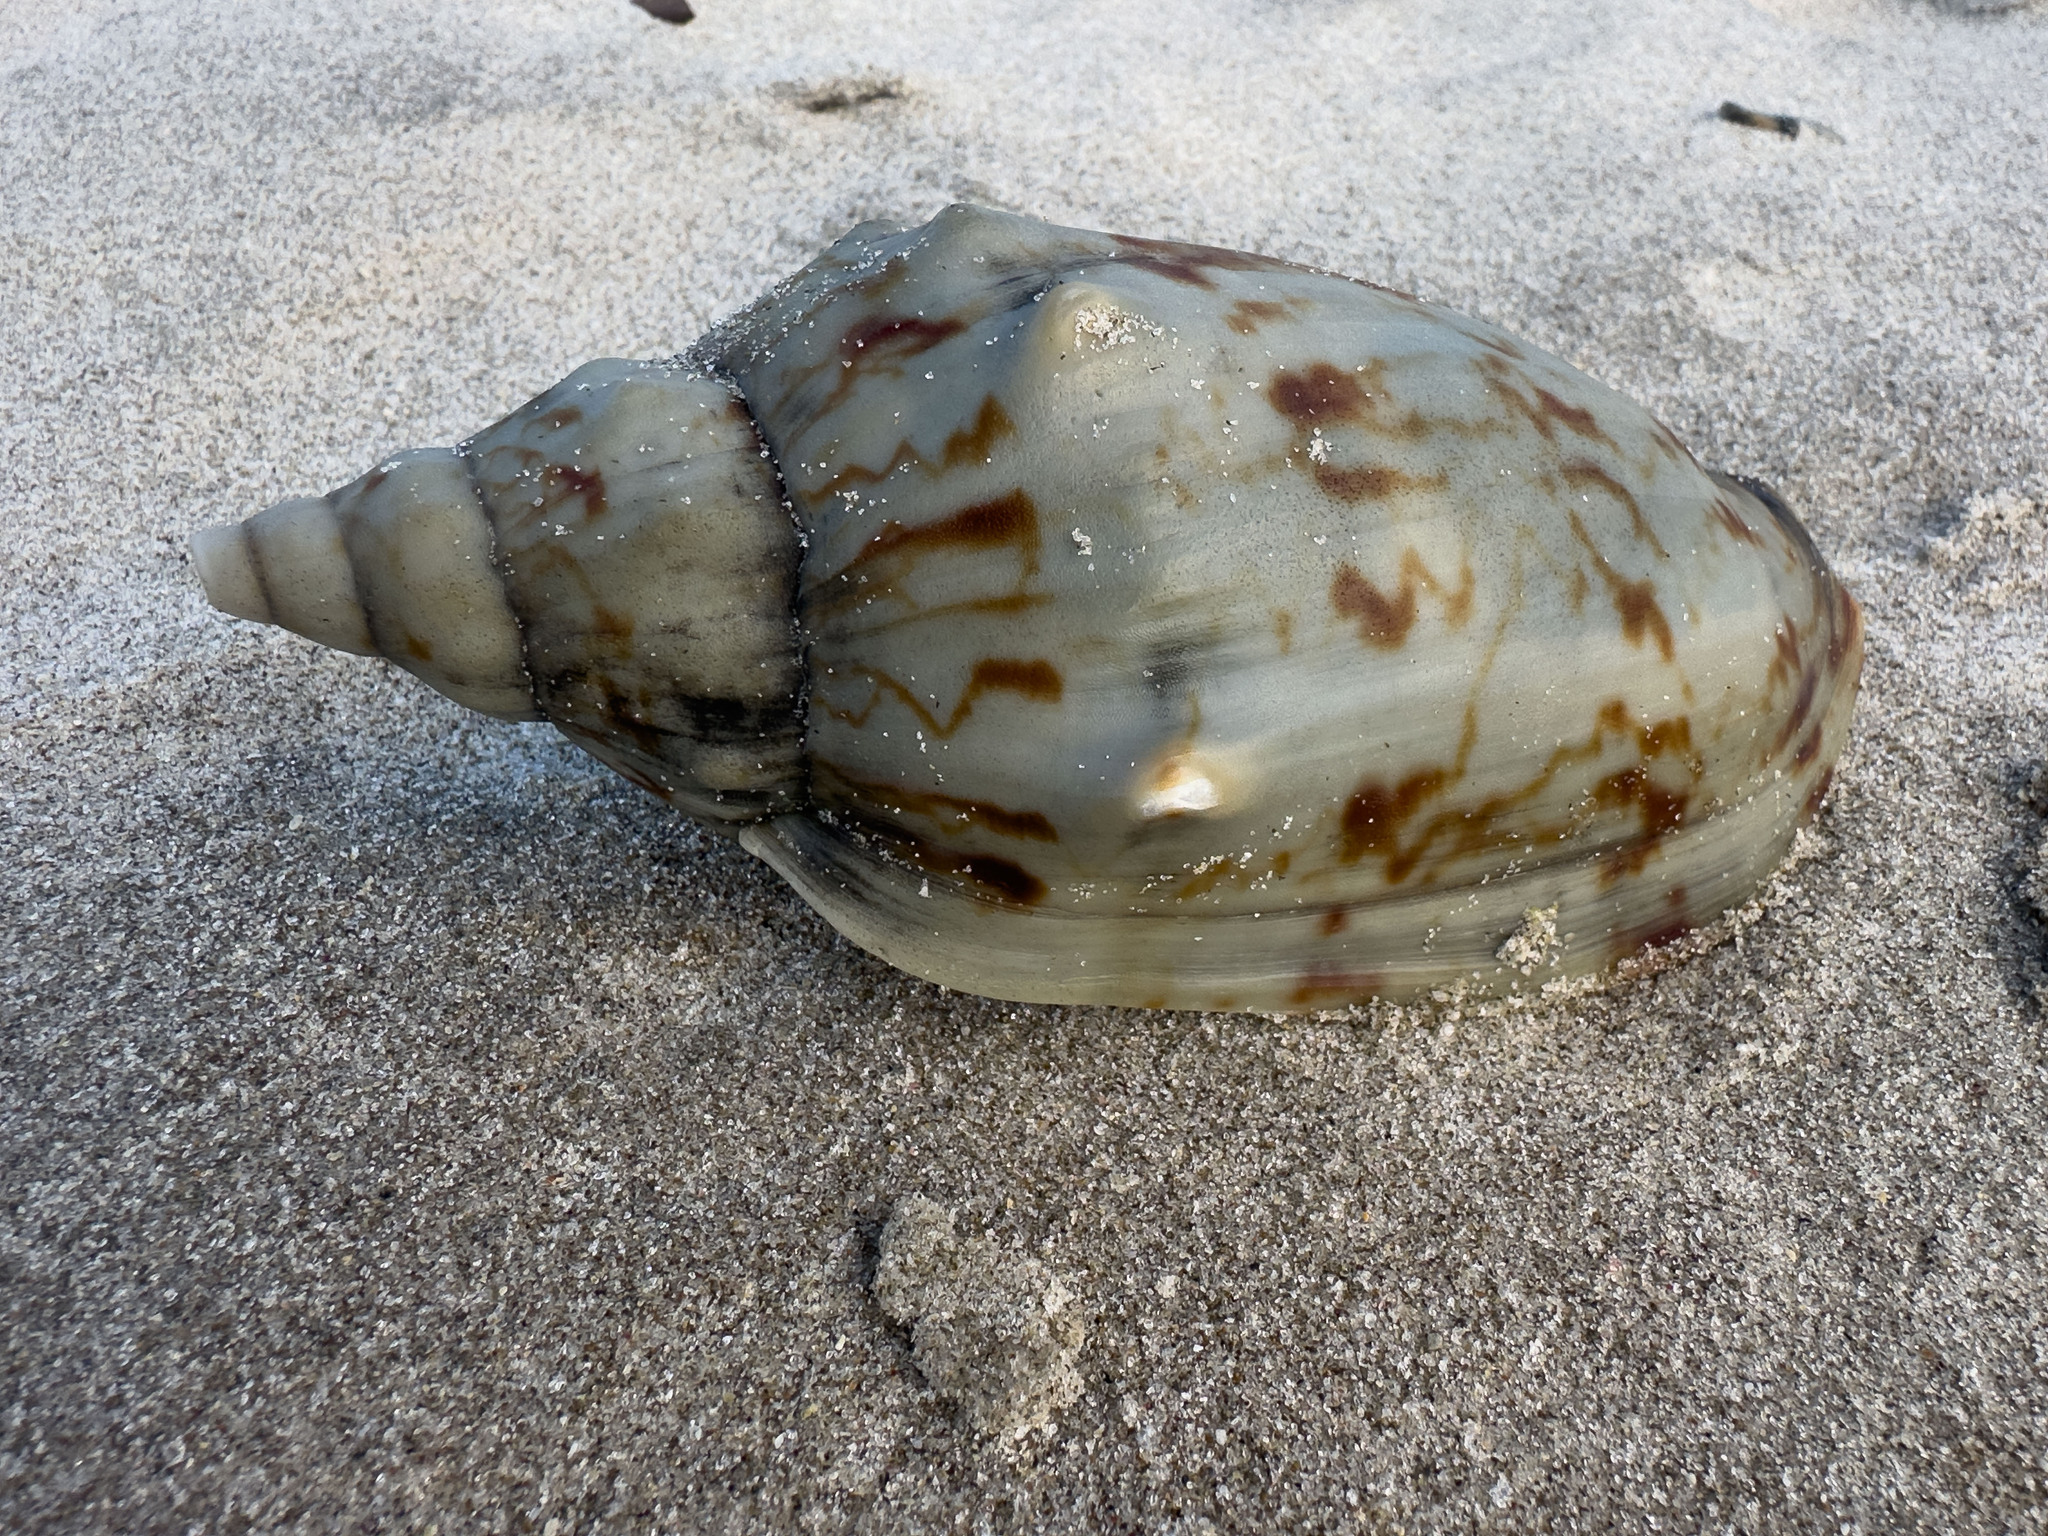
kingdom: Animalia
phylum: Mollusca
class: Gastropoda
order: Neogastropoda
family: Volutidae
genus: Alcithoe
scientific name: Alcithoe arabica
